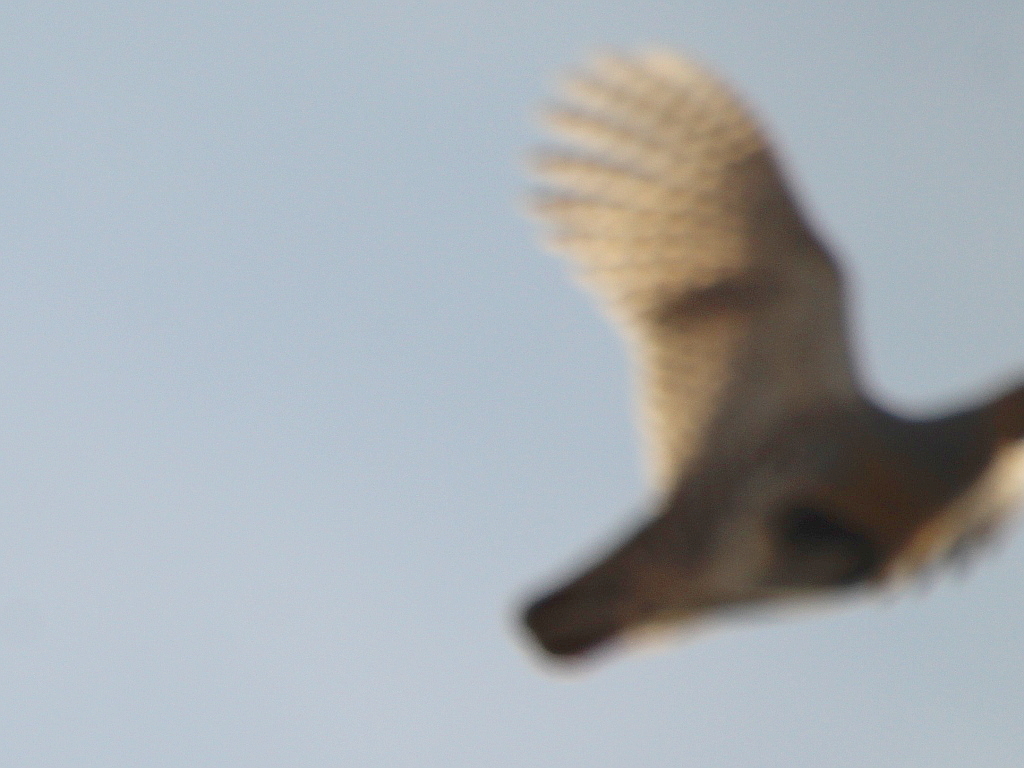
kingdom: Animalia
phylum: Chordata
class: Aves
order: Galliformes
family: Phasianidae
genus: Perdix
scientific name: Perdix dauurica
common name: Daurian partridge
